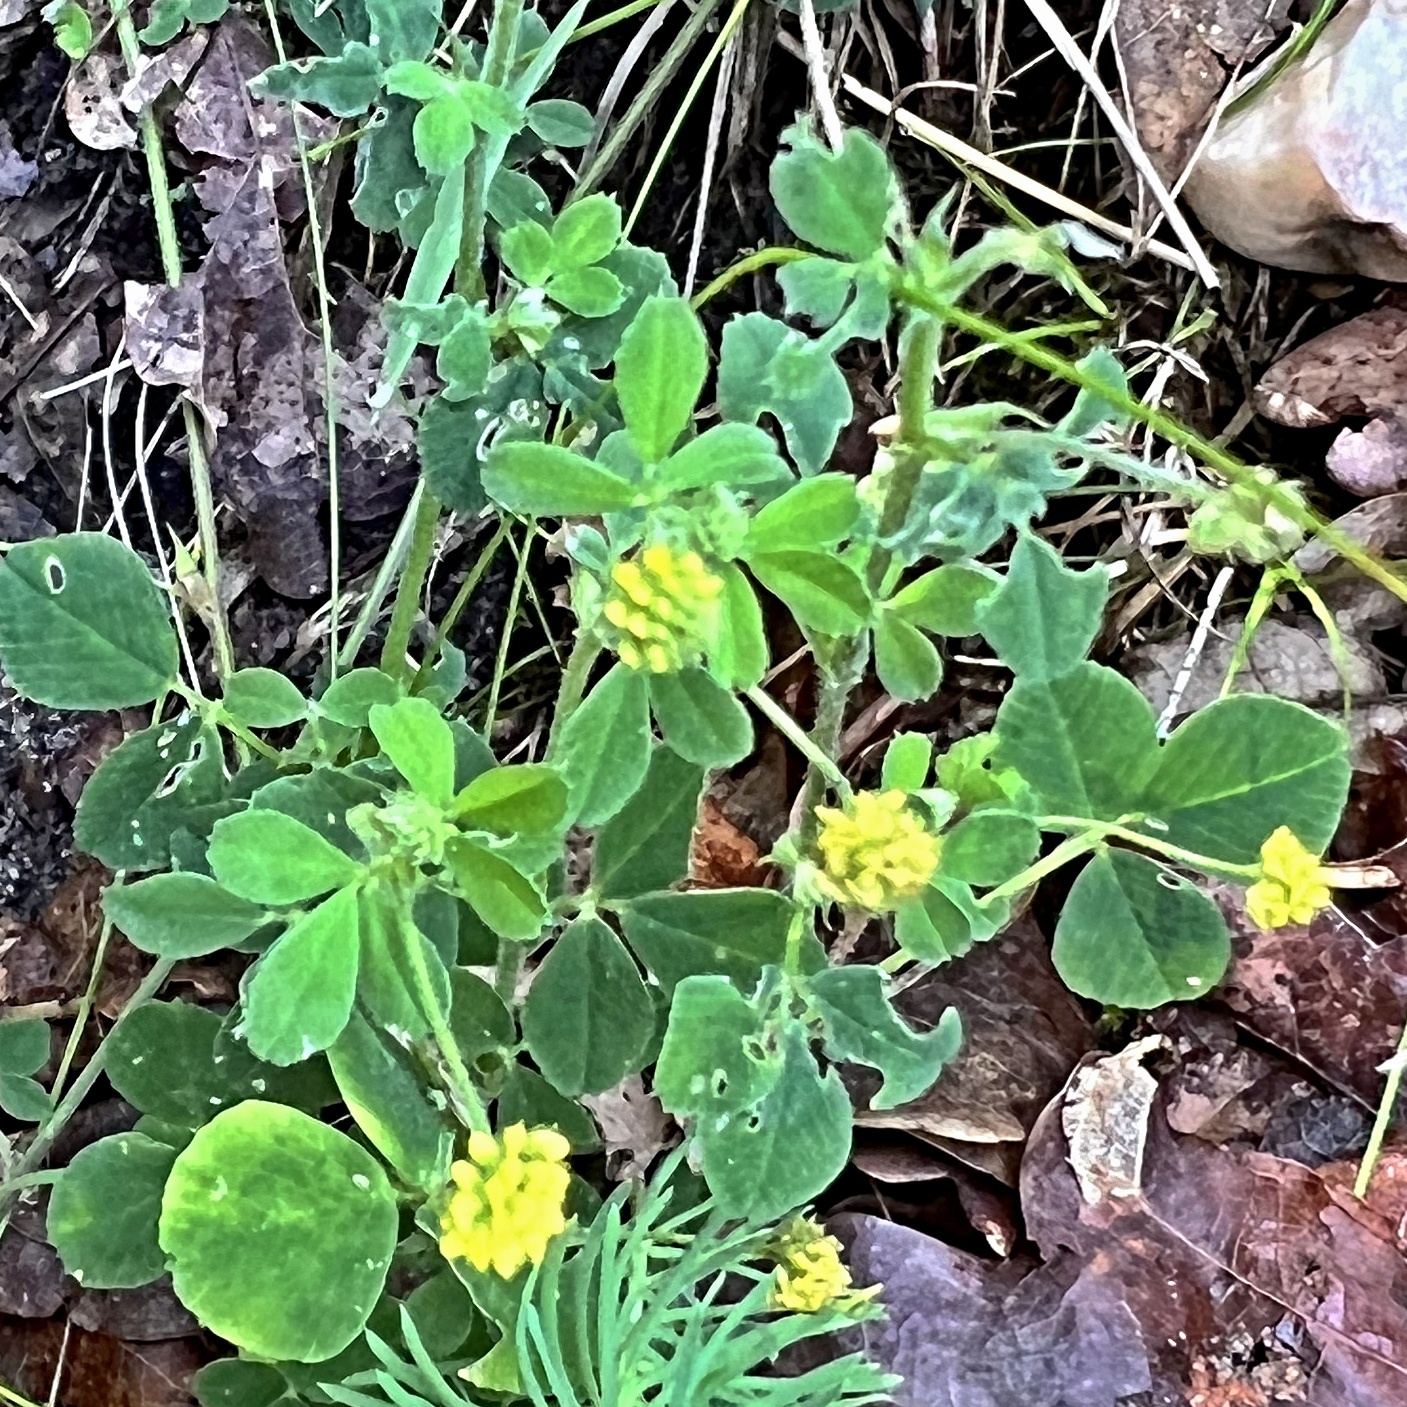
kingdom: Plantae
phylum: Tracheophyta
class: Magnoliopsida
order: Fabales
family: Fabaceae
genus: Medicago
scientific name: Medicago lupulina
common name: Black medick
